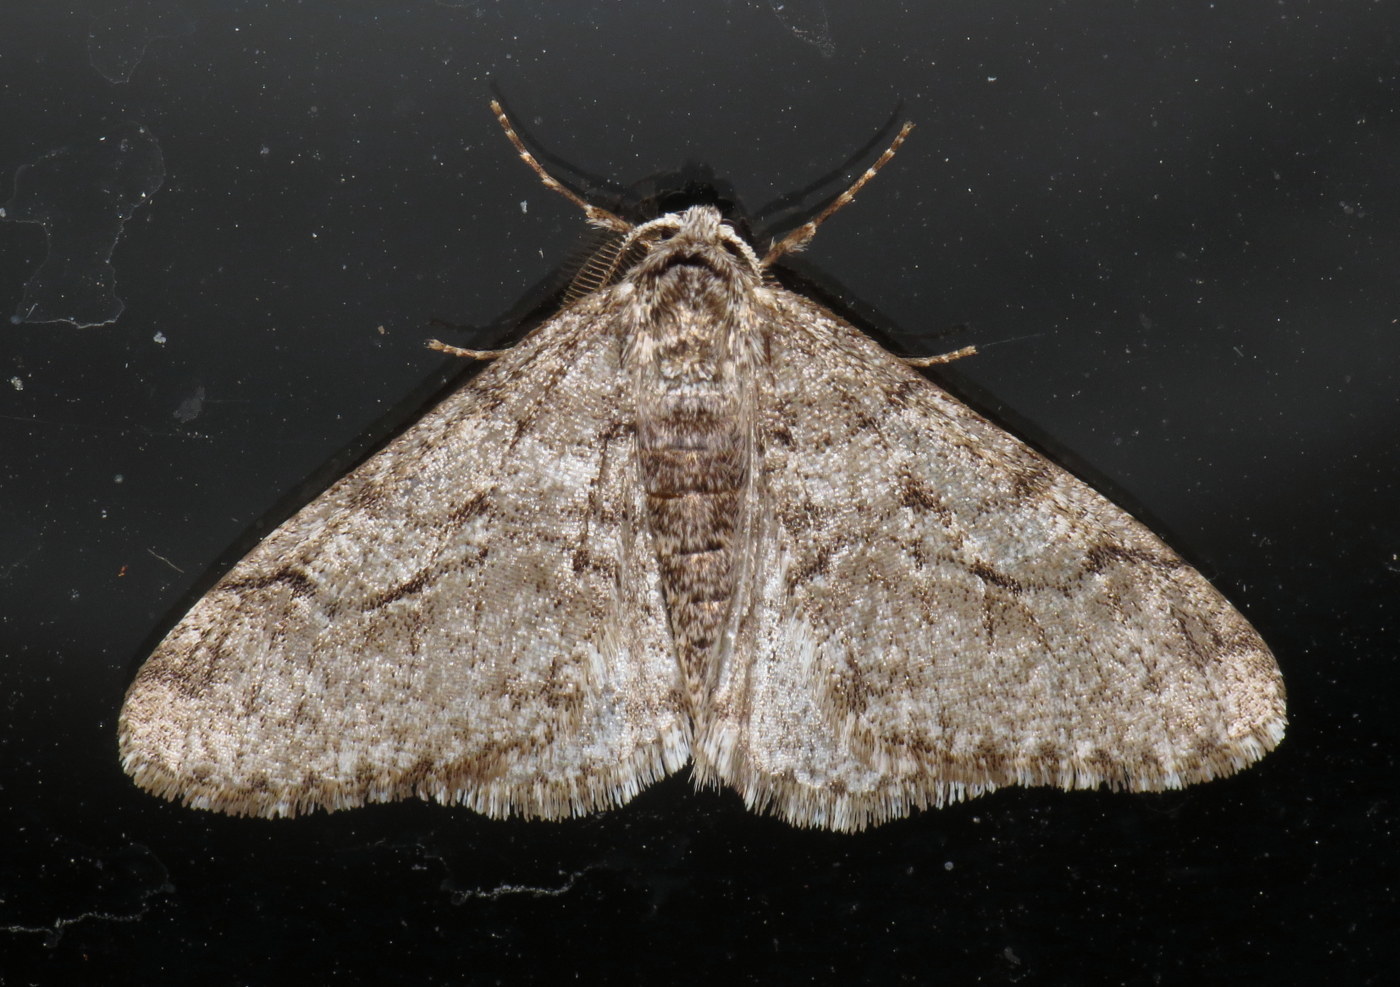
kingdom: Animalia
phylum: Arthropoda
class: Insecta
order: Lepidoptera
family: Geometridae
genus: Phigalia
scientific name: Phigalia titea
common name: Spiny looper
